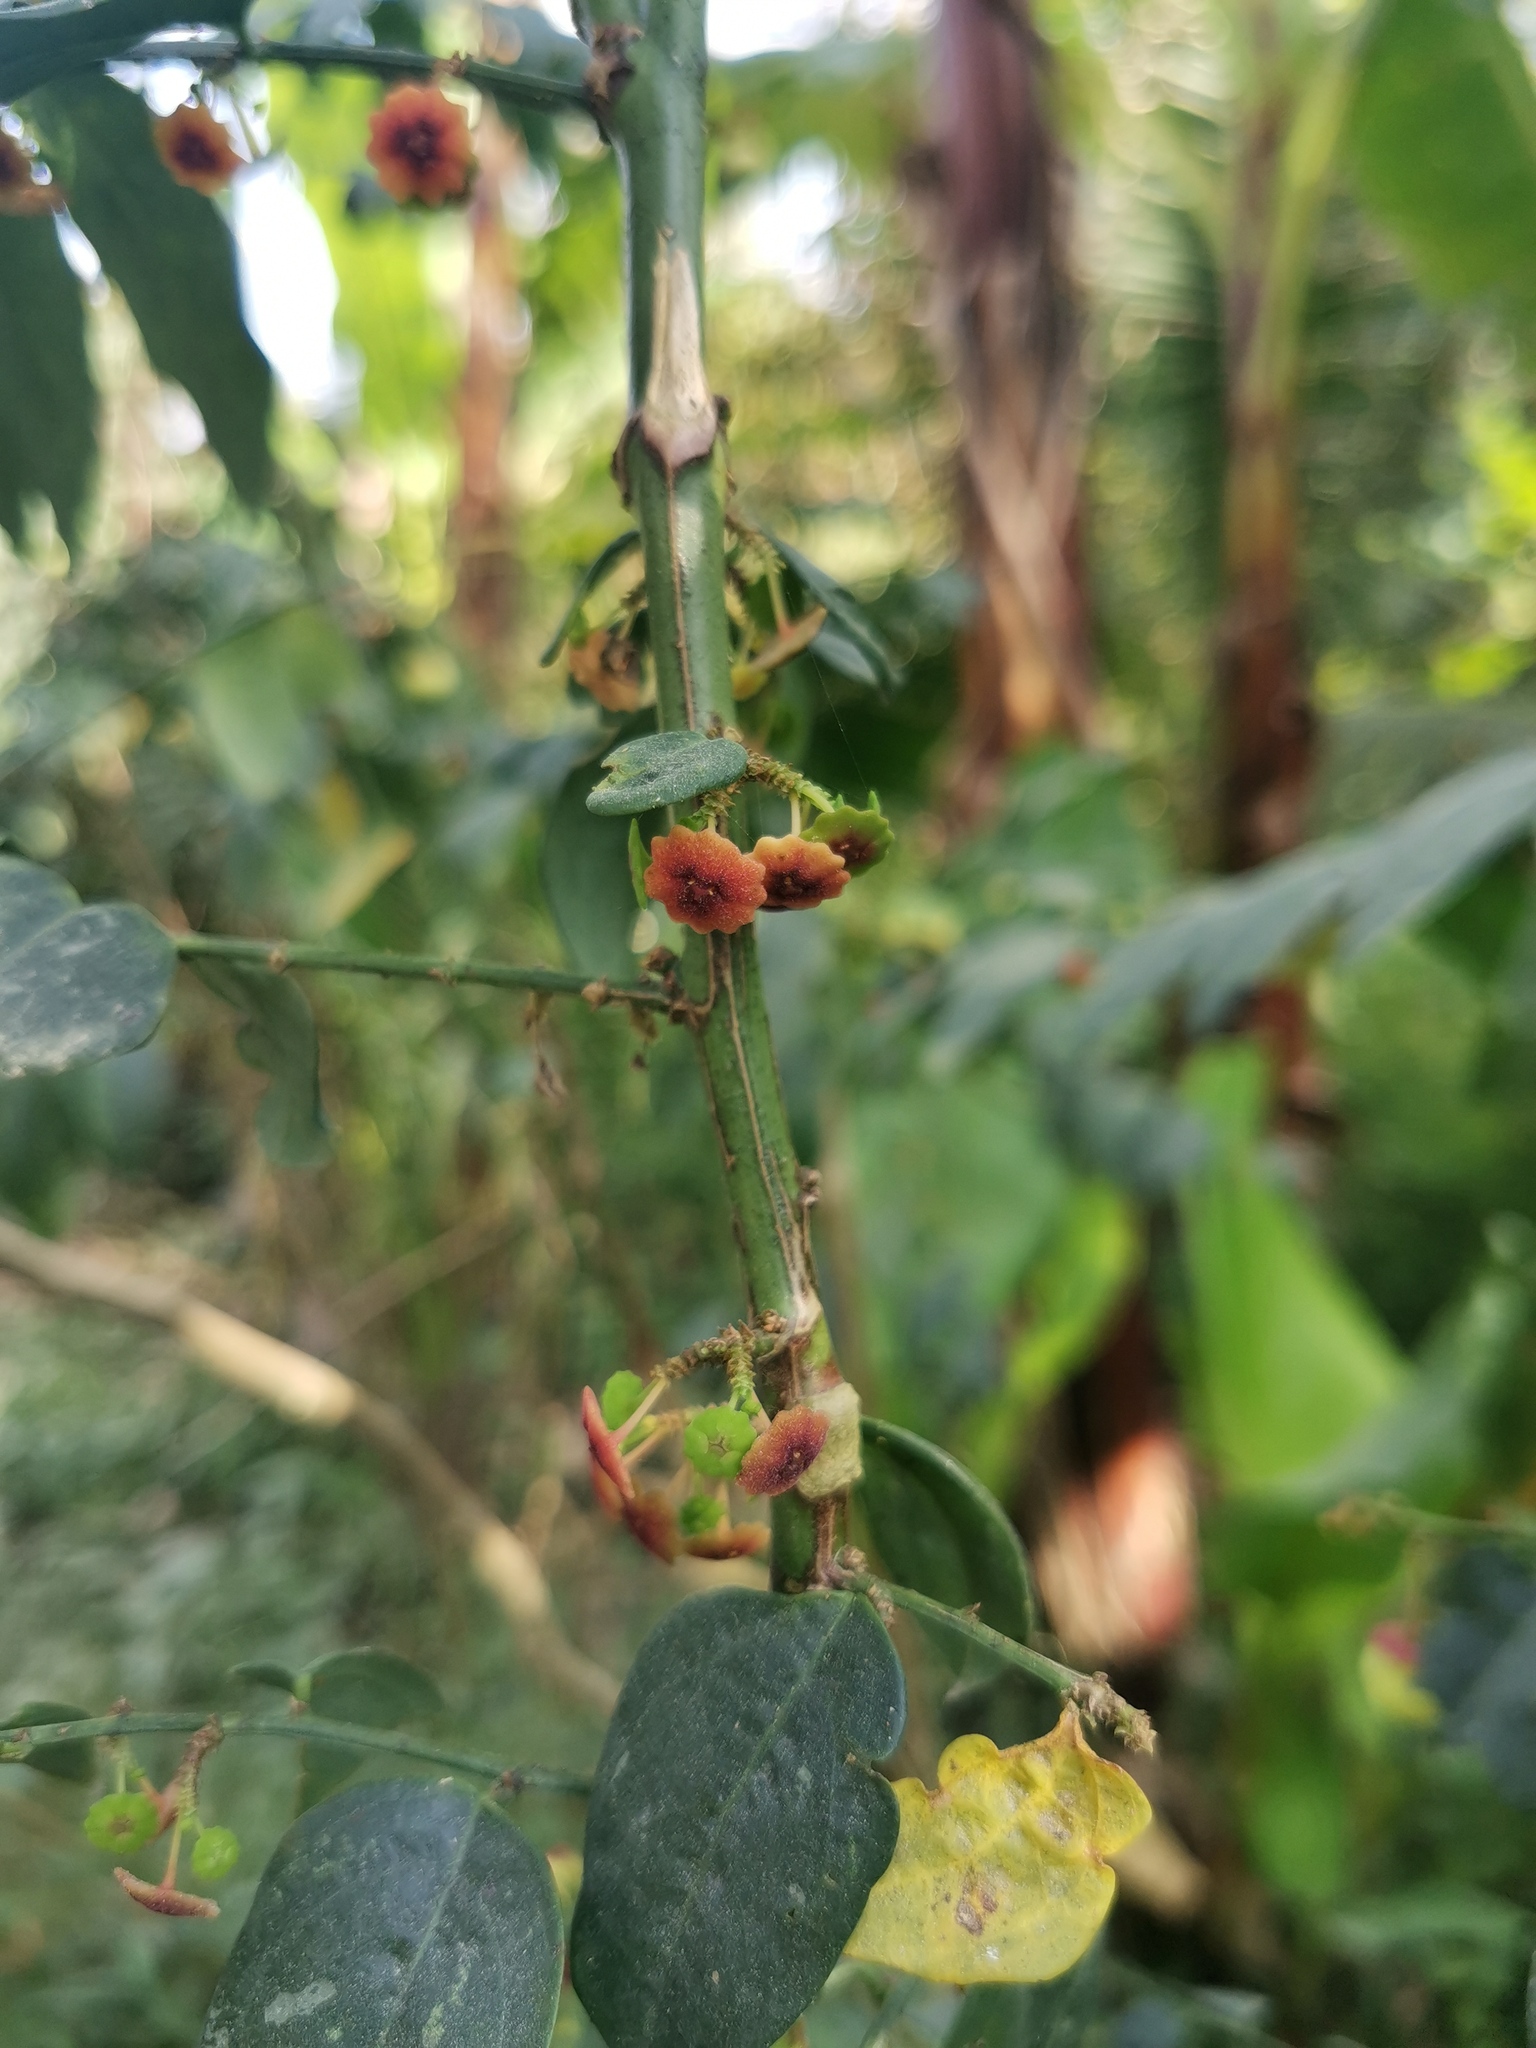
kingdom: Plantae
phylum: Tracheophyta
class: Magnoliopsida
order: Malpighiales
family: Phyllanthaceae
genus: Breynia
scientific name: Breynia androgyna
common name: Star gooseberry
